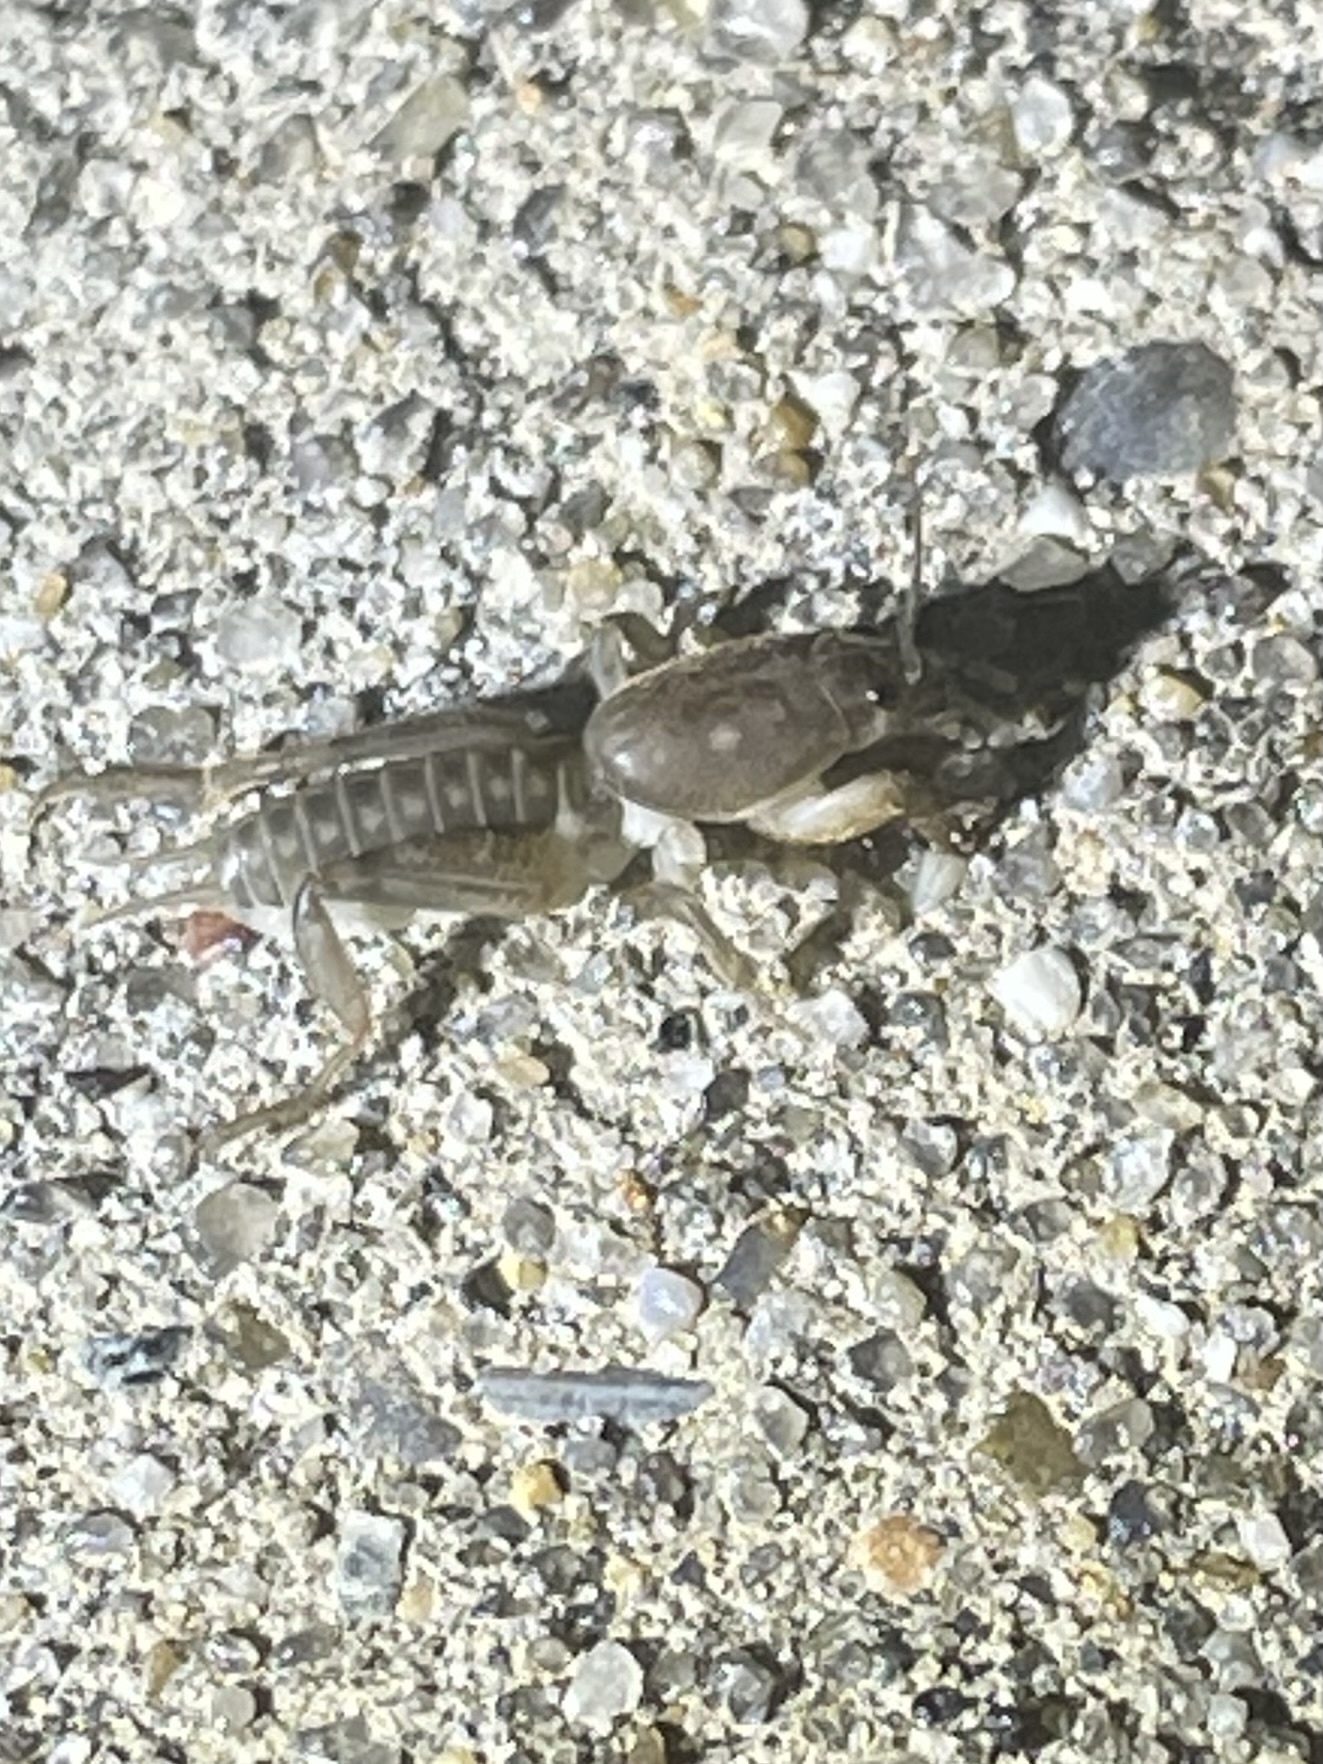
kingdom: Animalia
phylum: Arthropoda
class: Insecta
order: Orthoptera
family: Gryllotalpidae
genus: Neoscapteriscus
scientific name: Neoscapteriscus borellii
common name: Southern mole cricket
